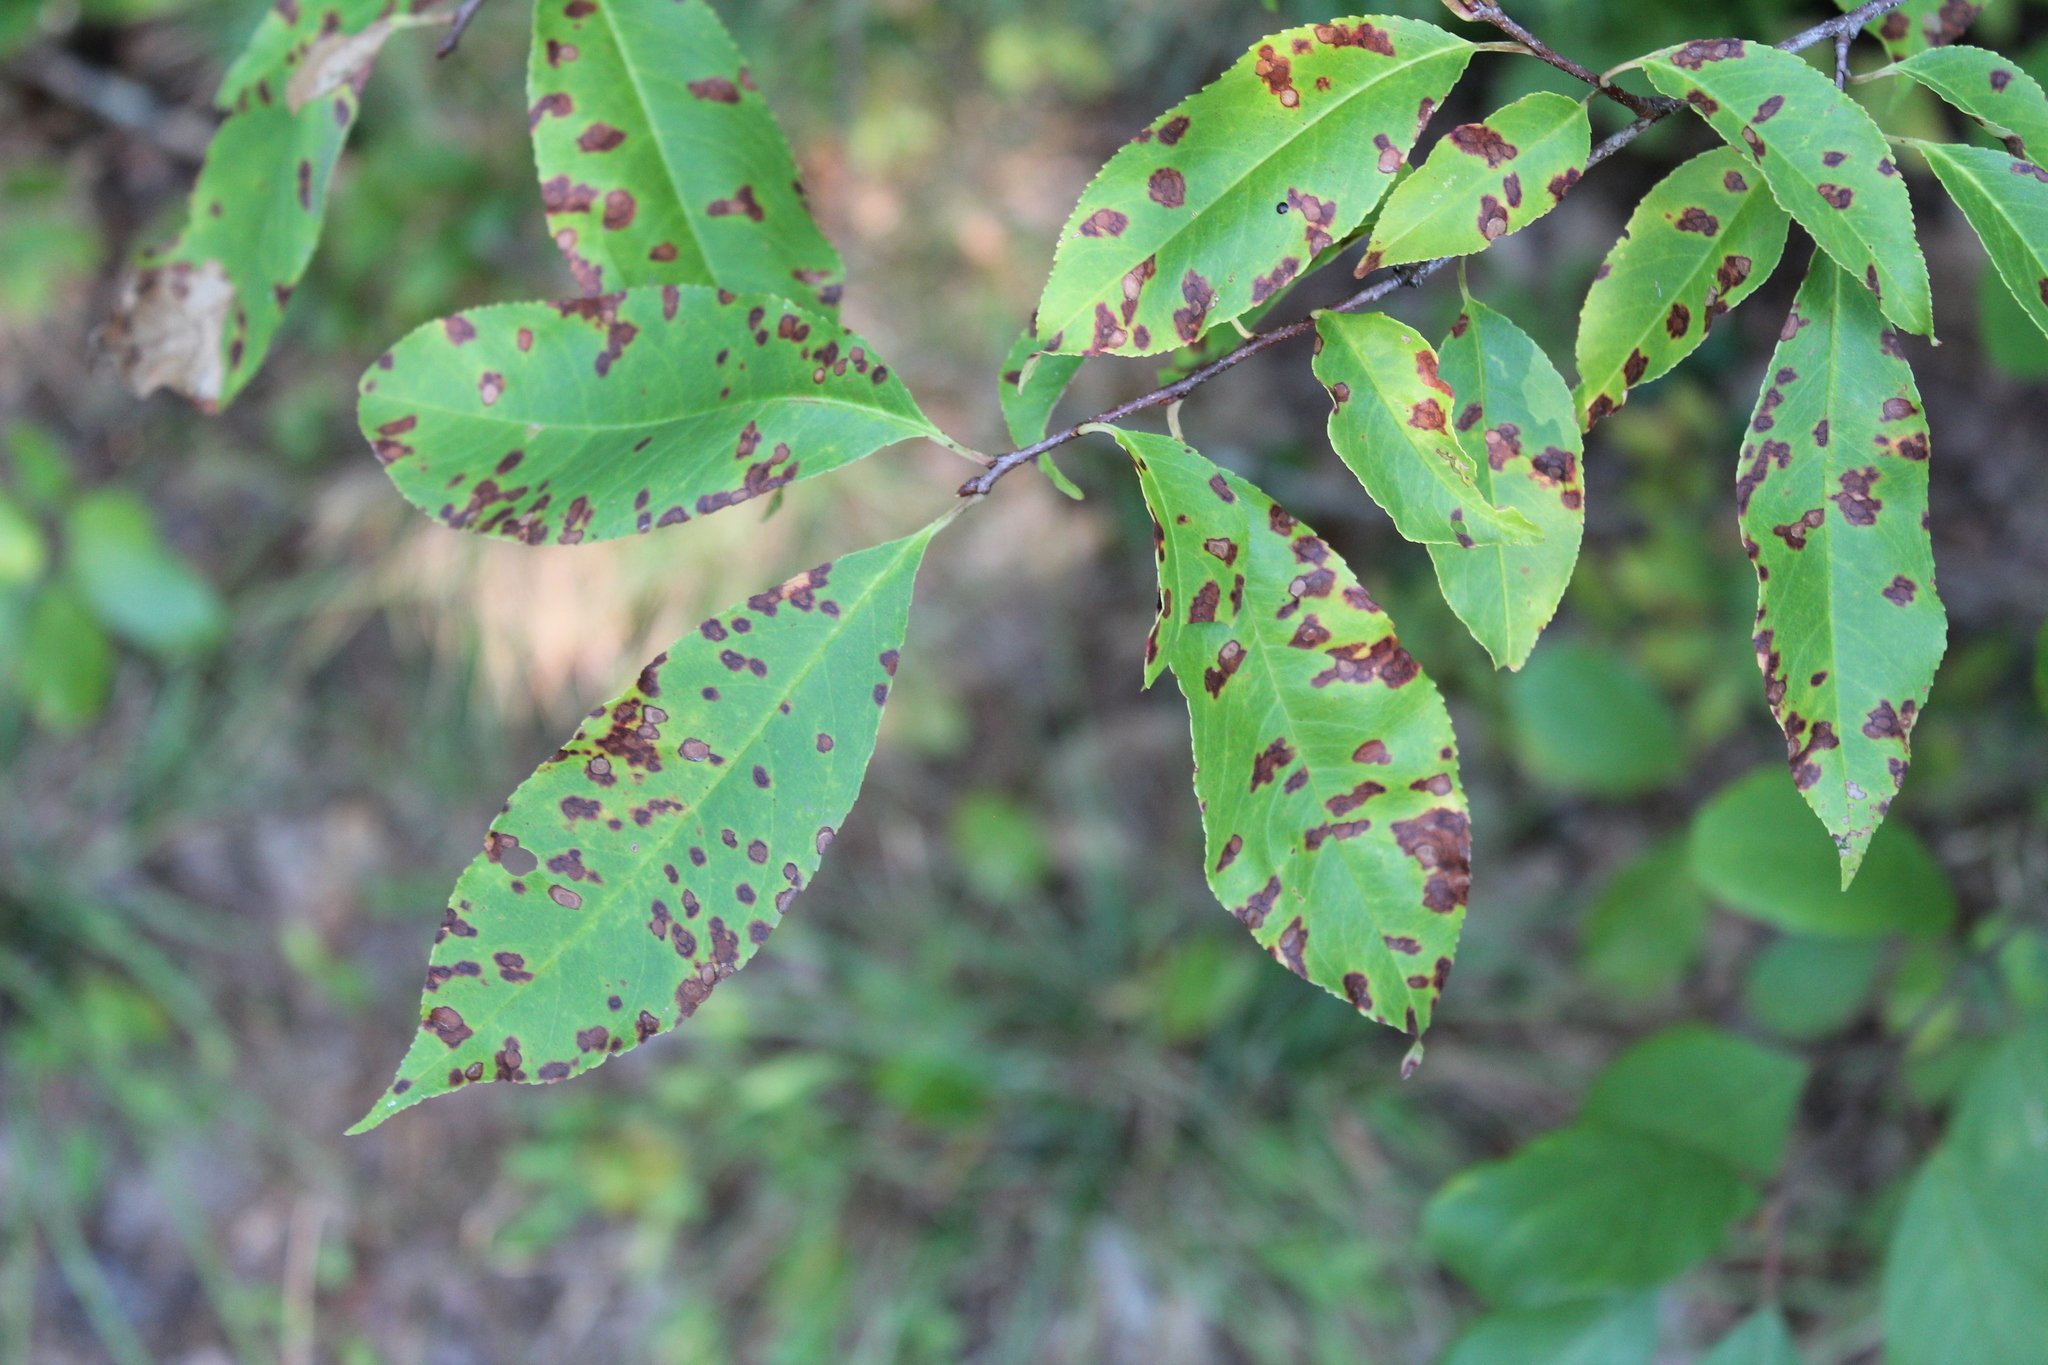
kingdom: Plantae
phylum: Tracheophyta
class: Magnoliopsida
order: Rosales
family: Rosaceae
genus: Prunus
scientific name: Prunus serotina
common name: Black cherry
